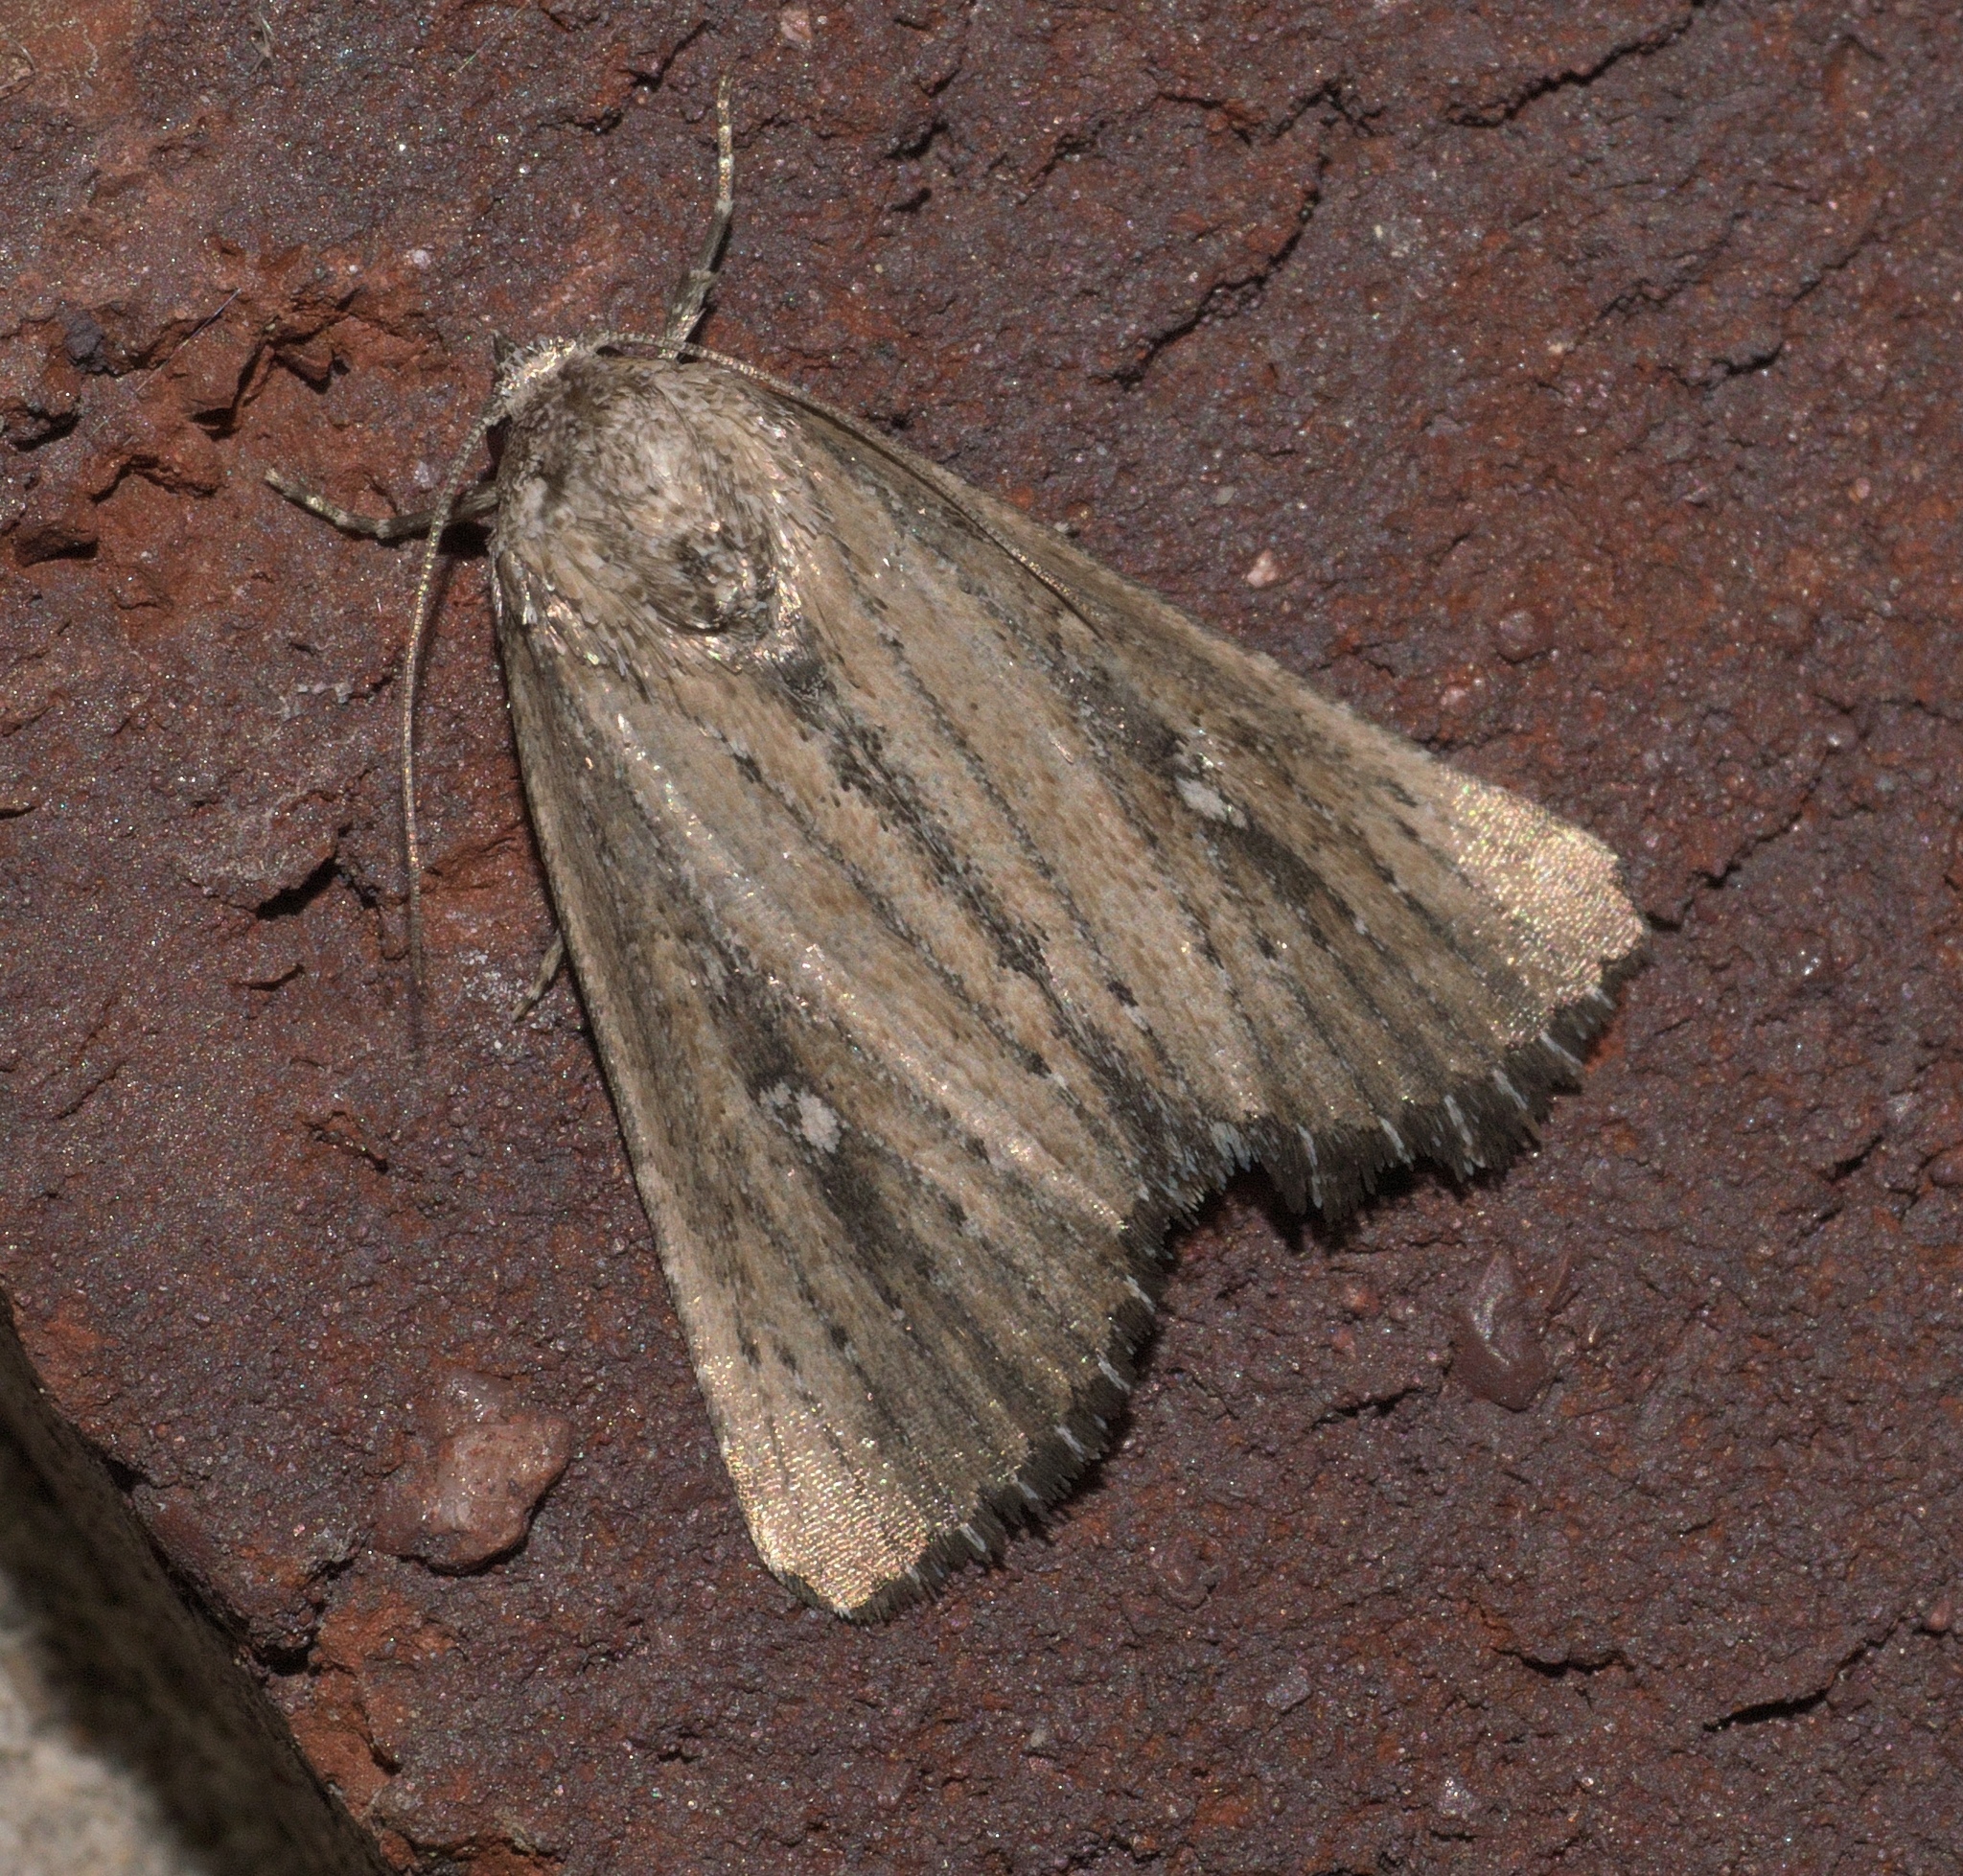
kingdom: Animalia
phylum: Arthropoda
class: Insecta
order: Lepidoptera
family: Noctuidae
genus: Condica
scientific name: Condica videns
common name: White-dotted groundling
